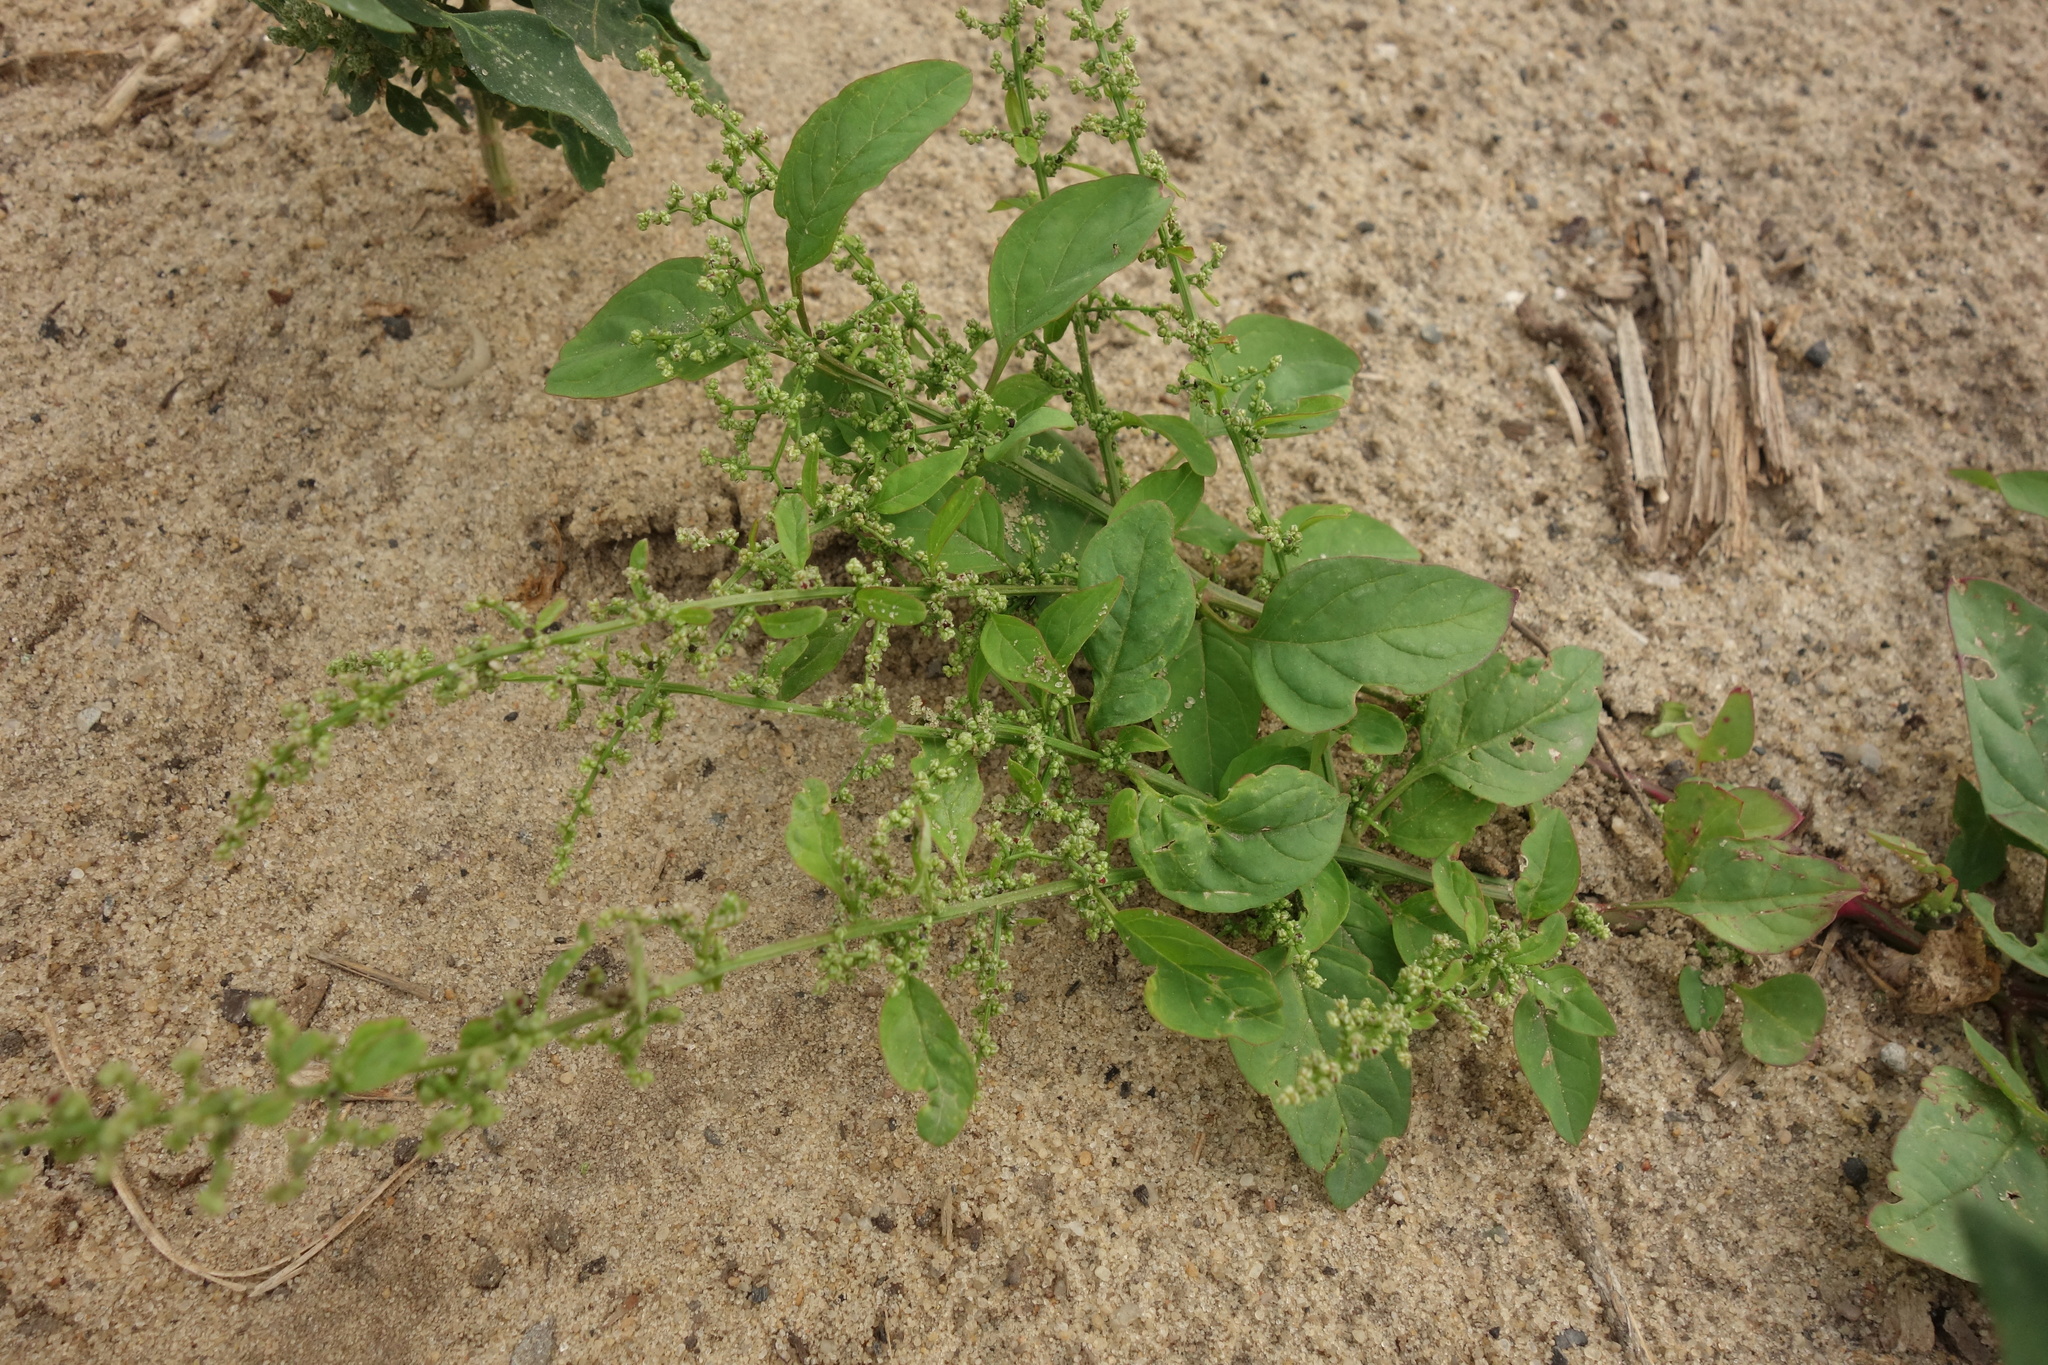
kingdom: Plantae
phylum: Tracheophyta
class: Magnoliopsida
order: Caryophyllales
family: Amaranthaceae
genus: Lipandra
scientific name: Lipandra polysperma
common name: Many-seed goosefoot
